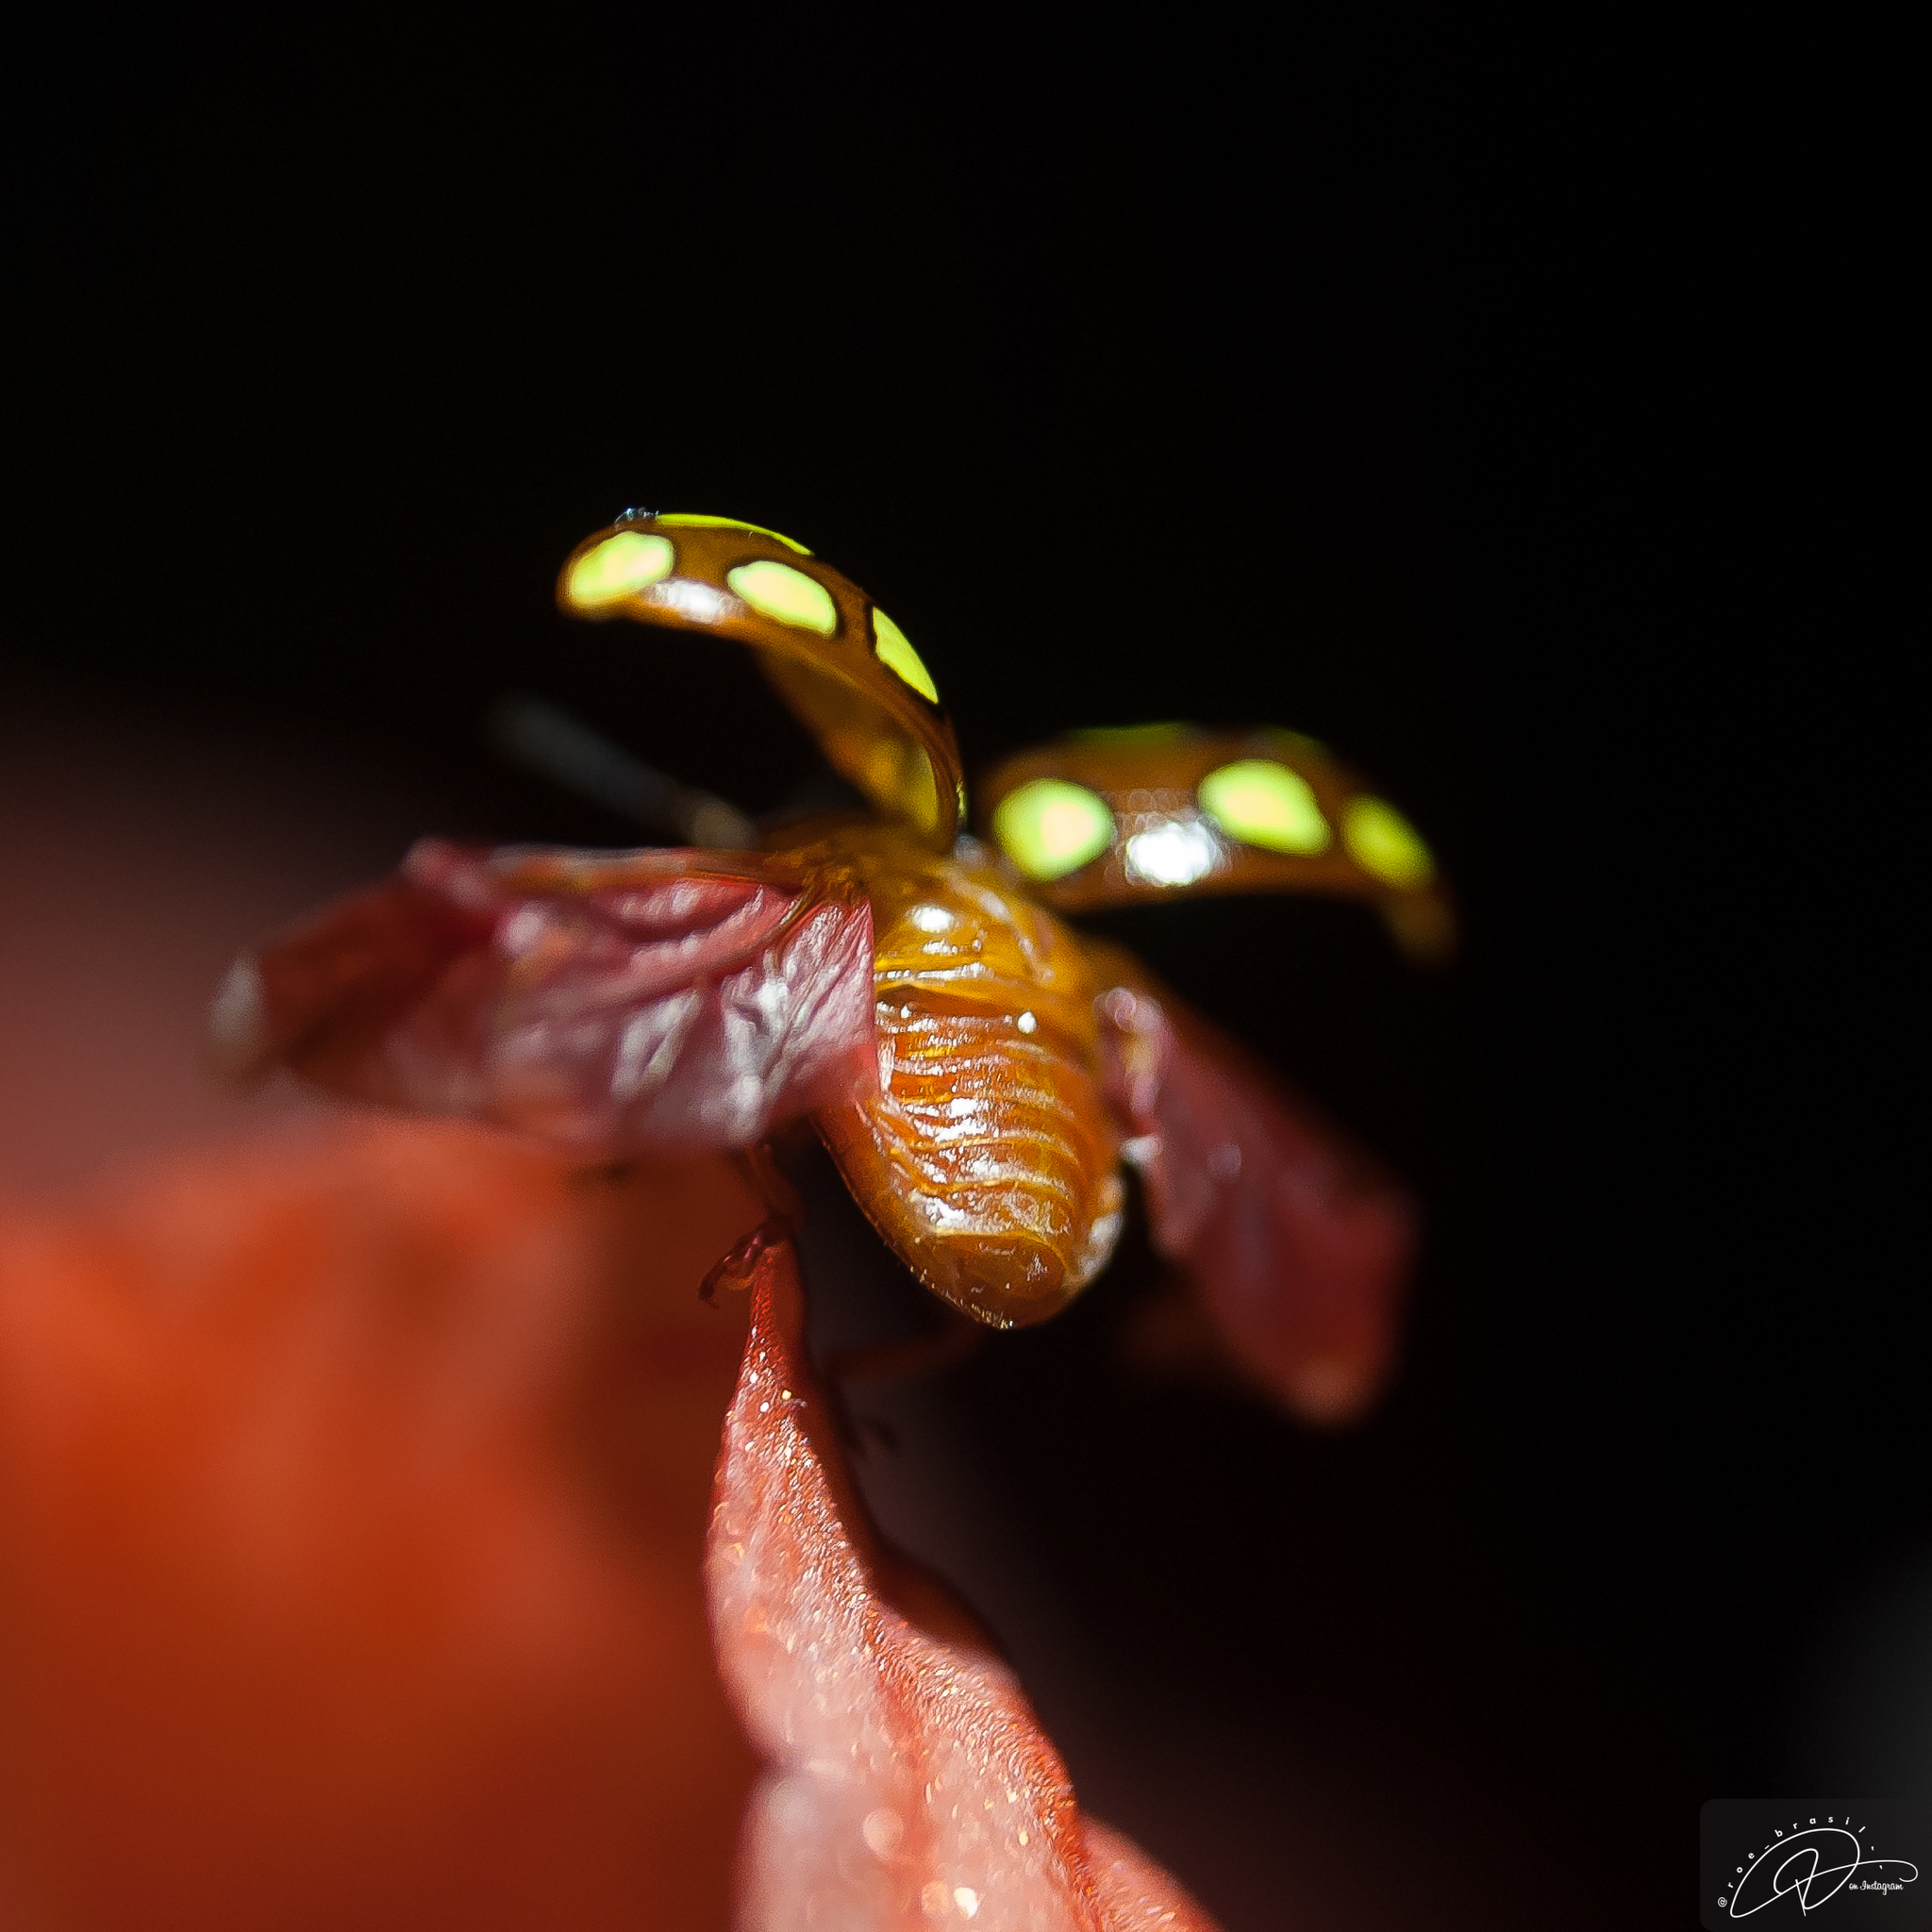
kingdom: Animalia
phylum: Arthropoda
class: Insecta
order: Coleoptera
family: Chrysomelidae
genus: Stilodes
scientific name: Stilodes
